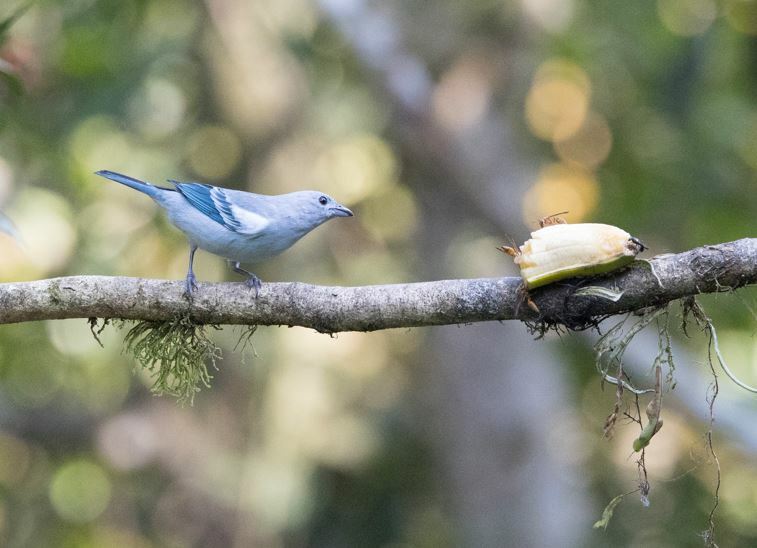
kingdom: Animalia
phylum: Chordata
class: Aves
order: Passeriformes
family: Thraupidae
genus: Thraupis
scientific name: Thraupis episcopus
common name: Blue-grey tanager
